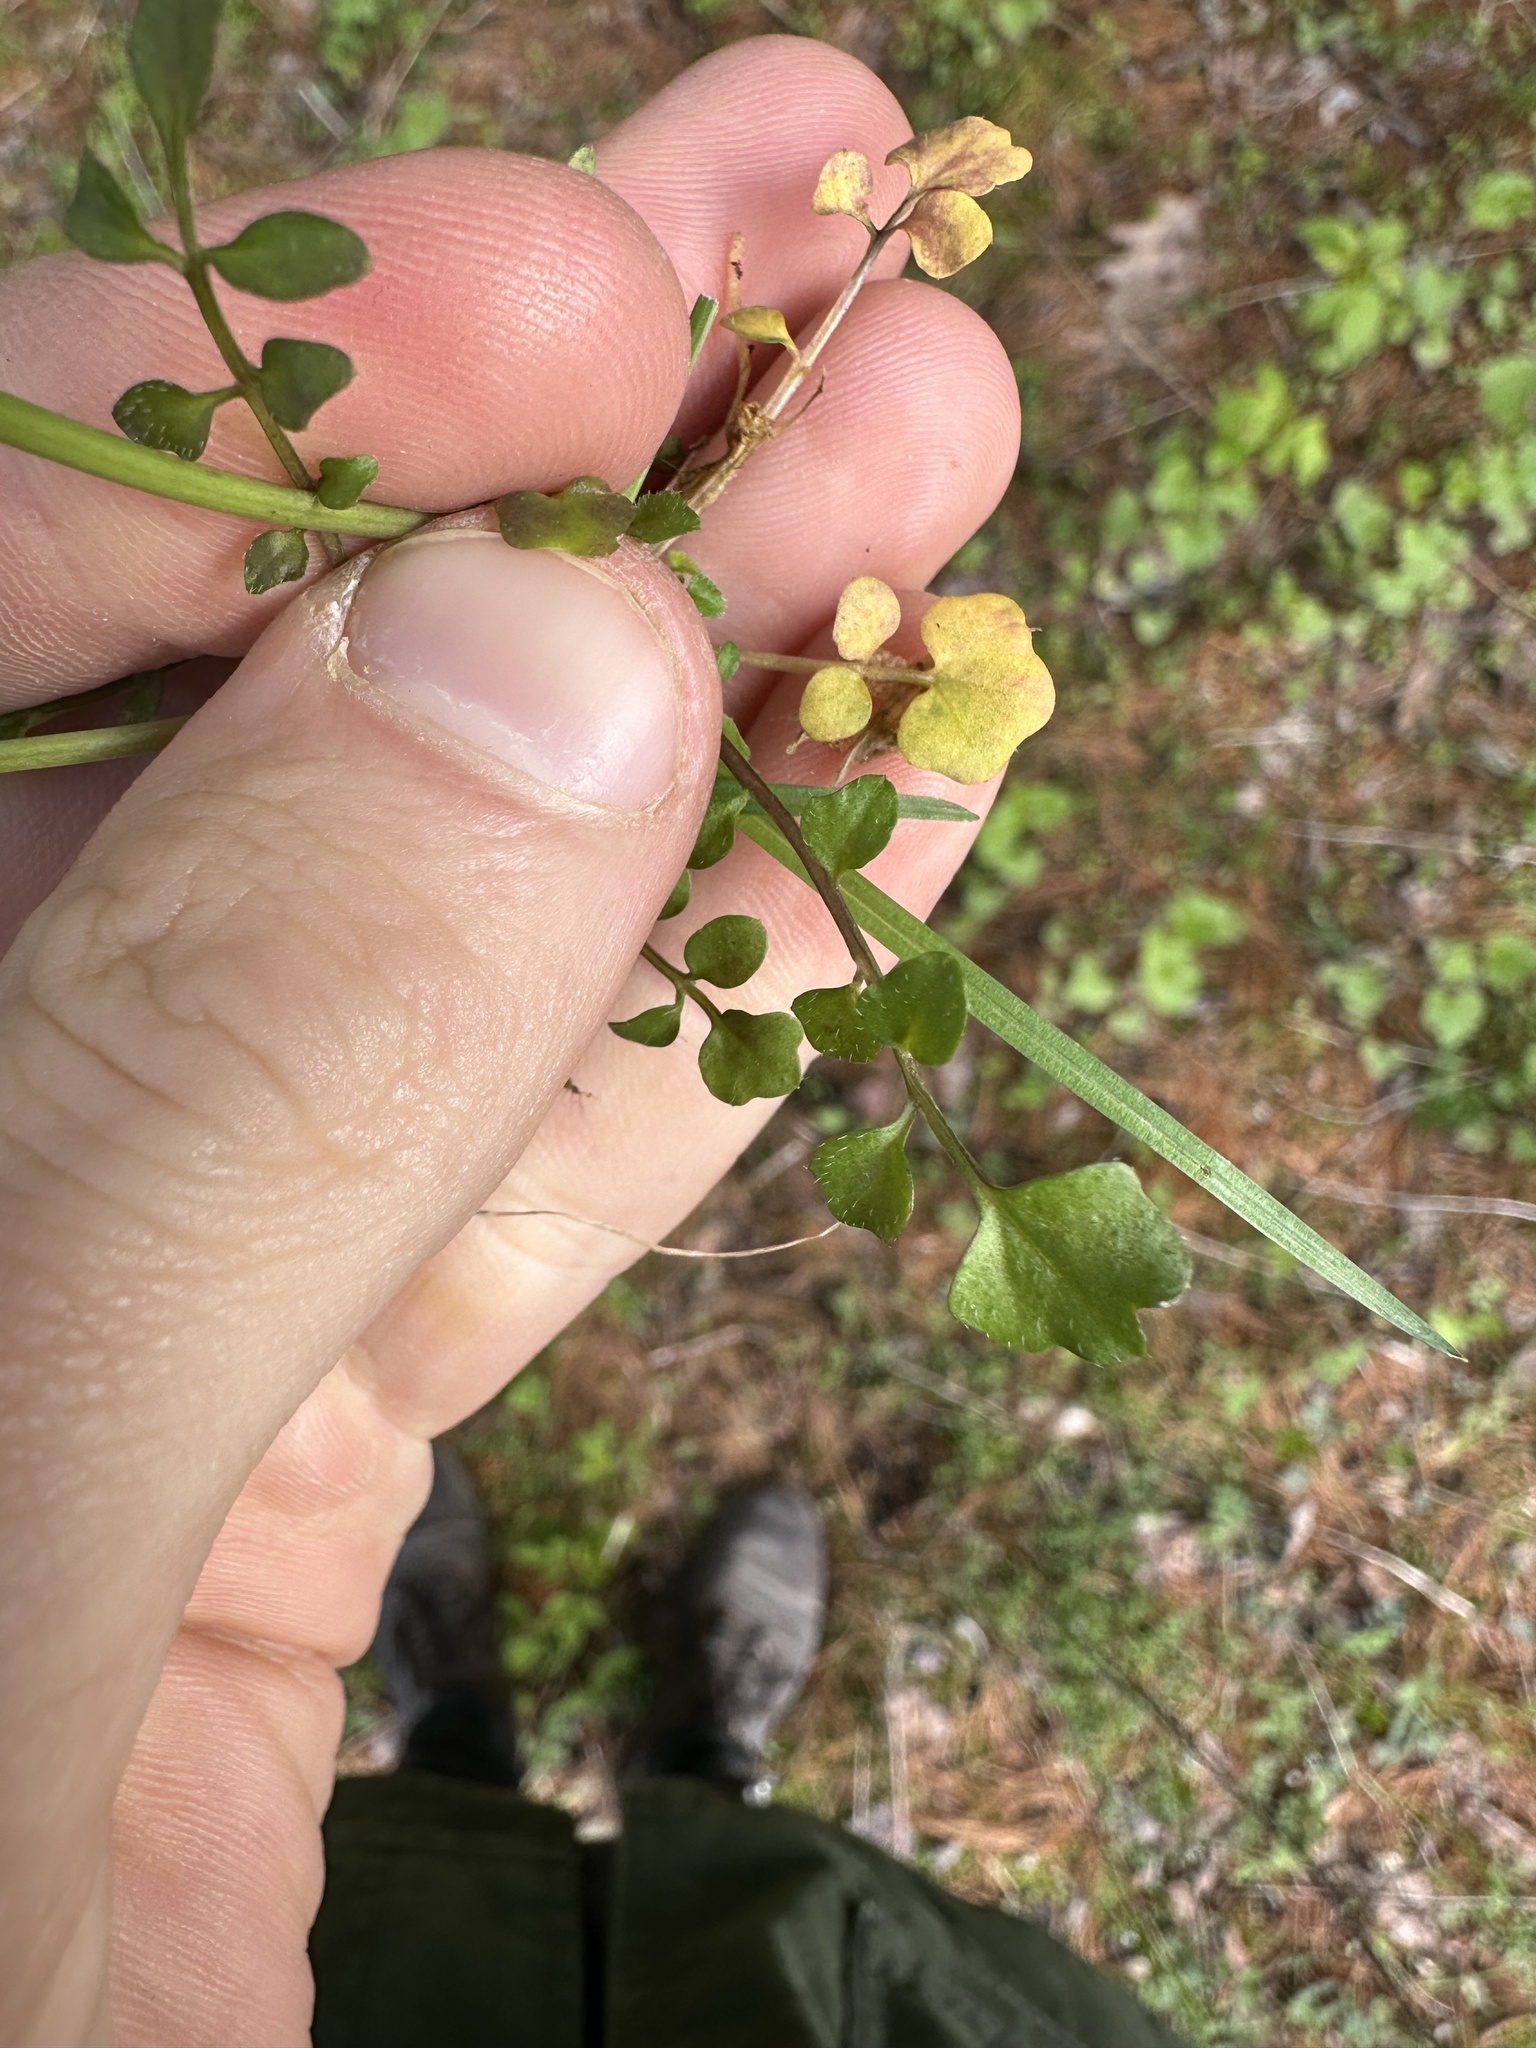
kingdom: Plantae
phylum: Tracheophyta
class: Magnoliopsida
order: Brassicales
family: Brassicaceae
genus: Cardamine
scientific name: Cardamine hirsuta
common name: Hairy bittercress
